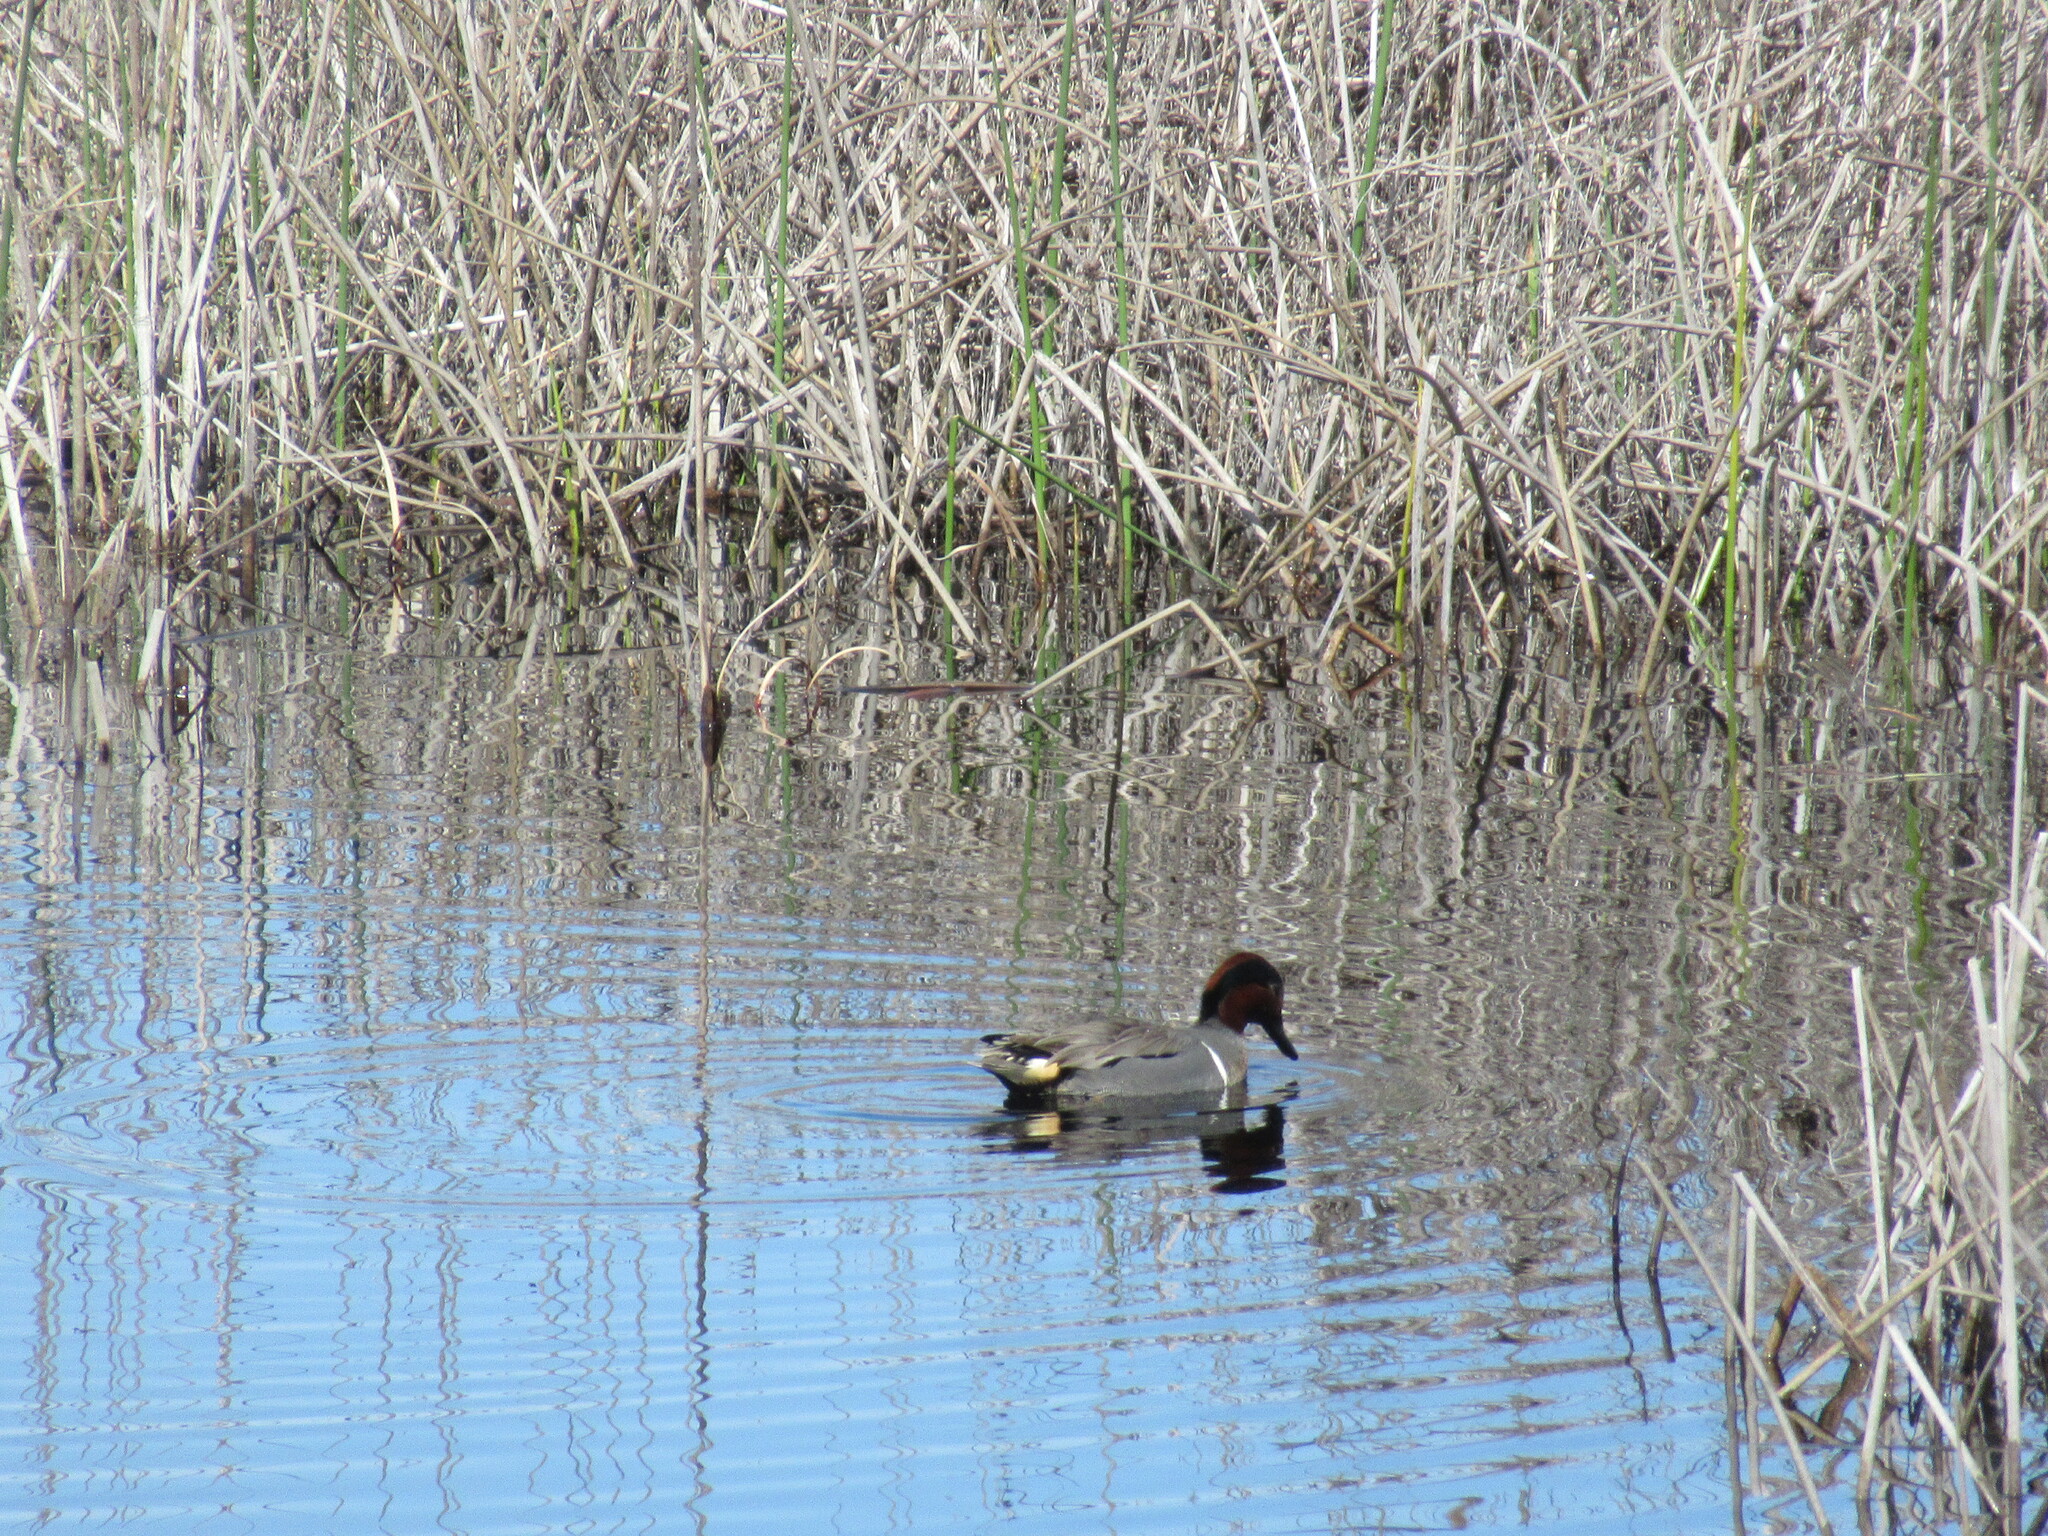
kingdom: Animalia
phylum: Chordata
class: Aves
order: Anseriformes
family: Anatidae
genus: Anas
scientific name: Anas crecca
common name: Eurasian teal
